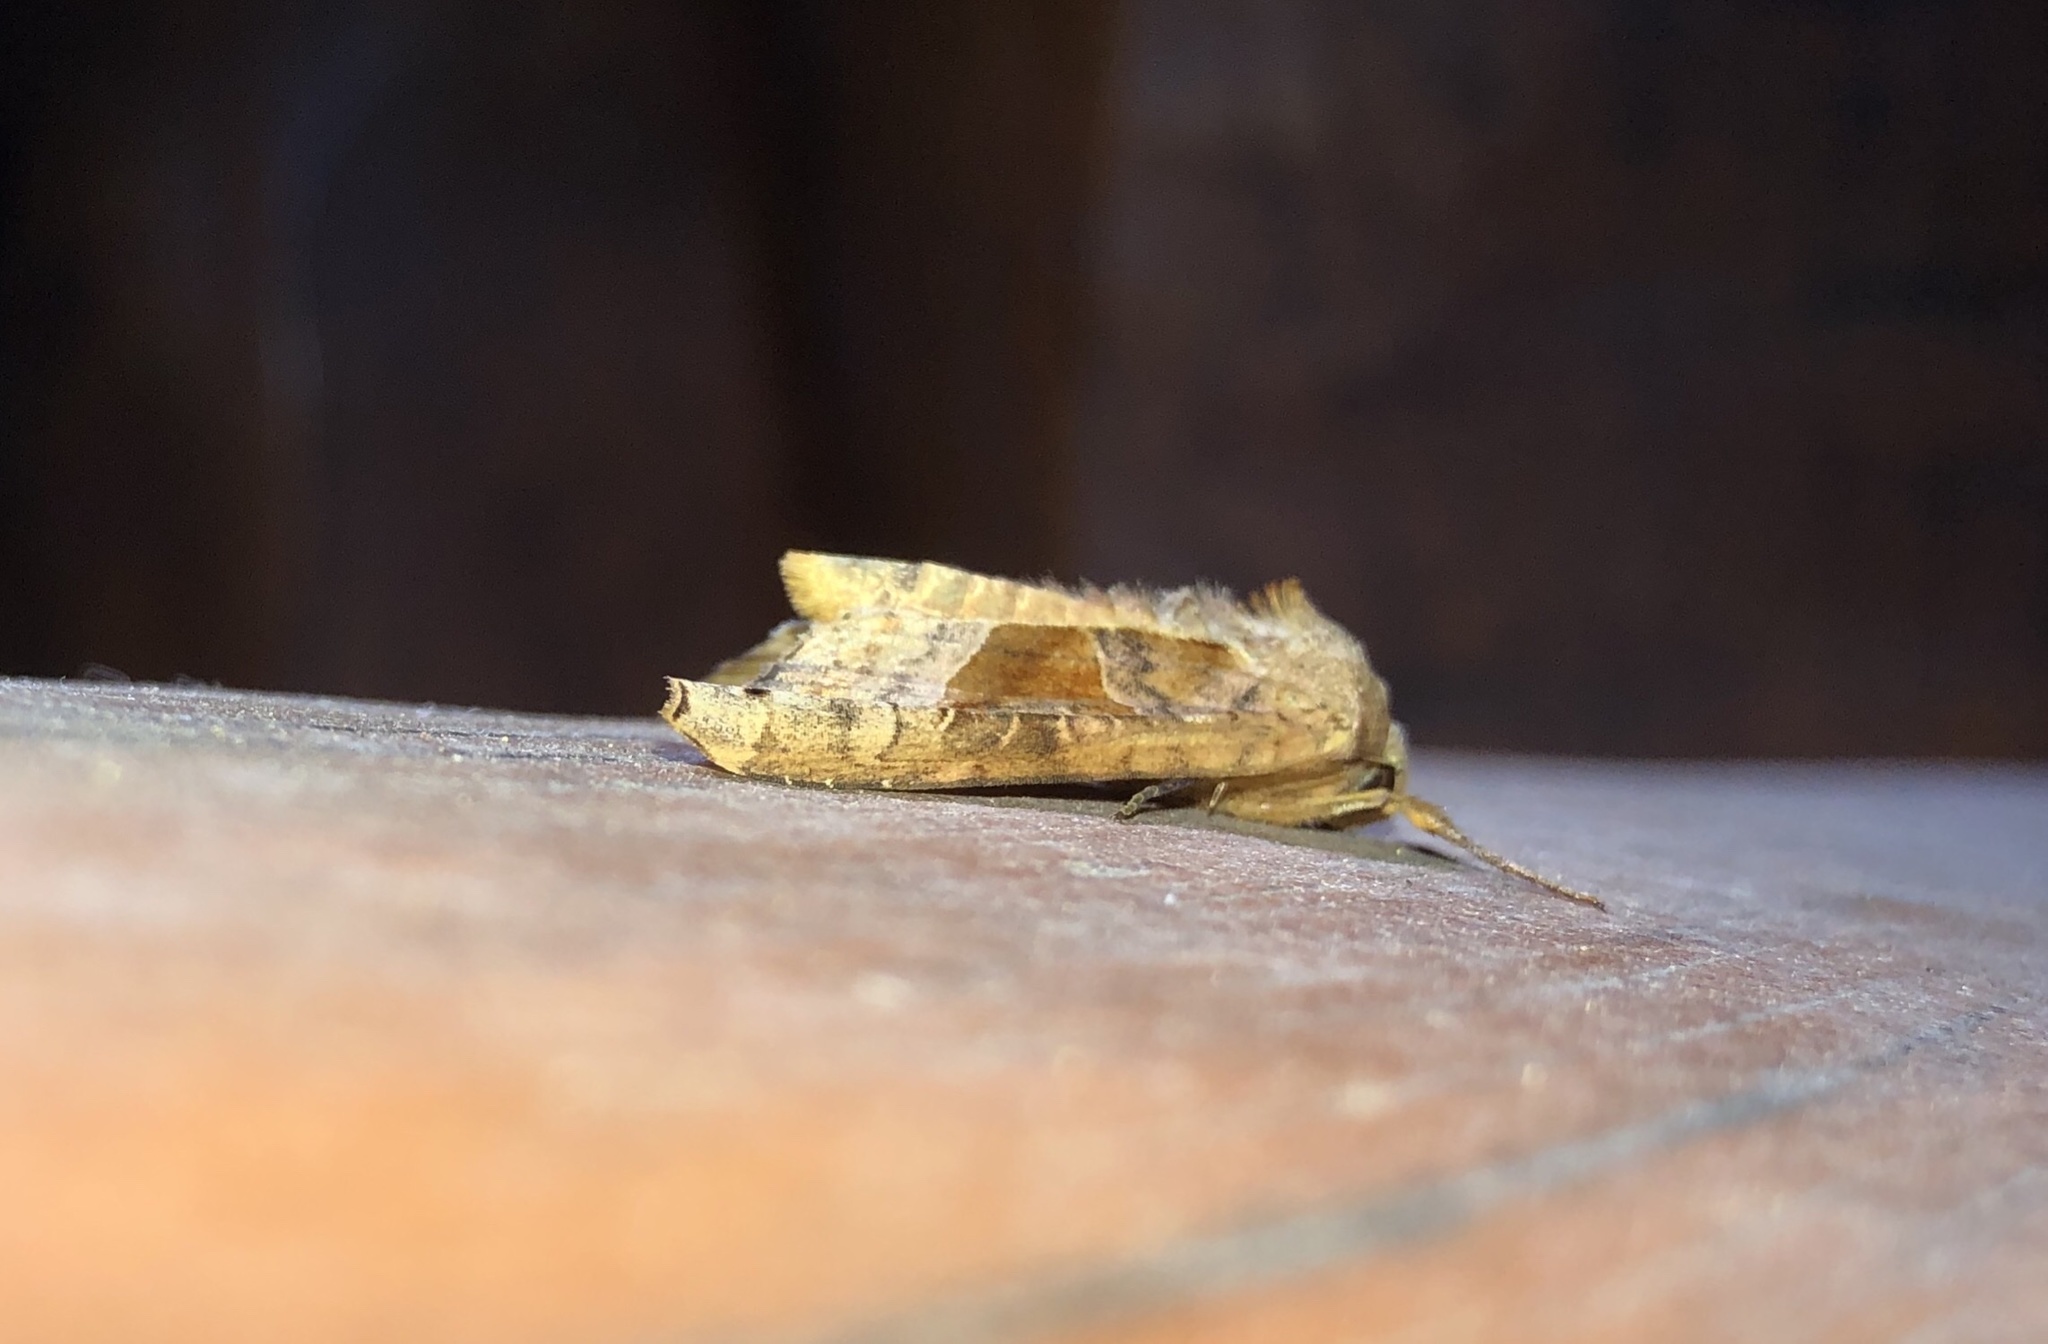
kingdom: Animalia
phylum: Arthropoda
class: Insecta
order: Lepidoptera
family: Noctuidae
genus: Phlogophora
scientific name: Phlogophora periculosa
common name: Brown angle shades
